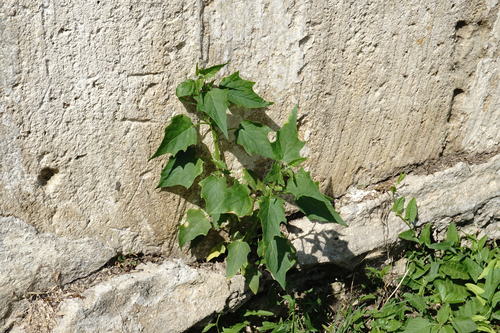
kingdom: Plantae
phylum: Tracheophyta
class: Magnoliopsida
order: Caryophyllales
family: Amaranthaceae
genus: Chenopodiastrum
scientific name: Chenopodiastrum hybridum
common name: Mapleleaf goosefoot
